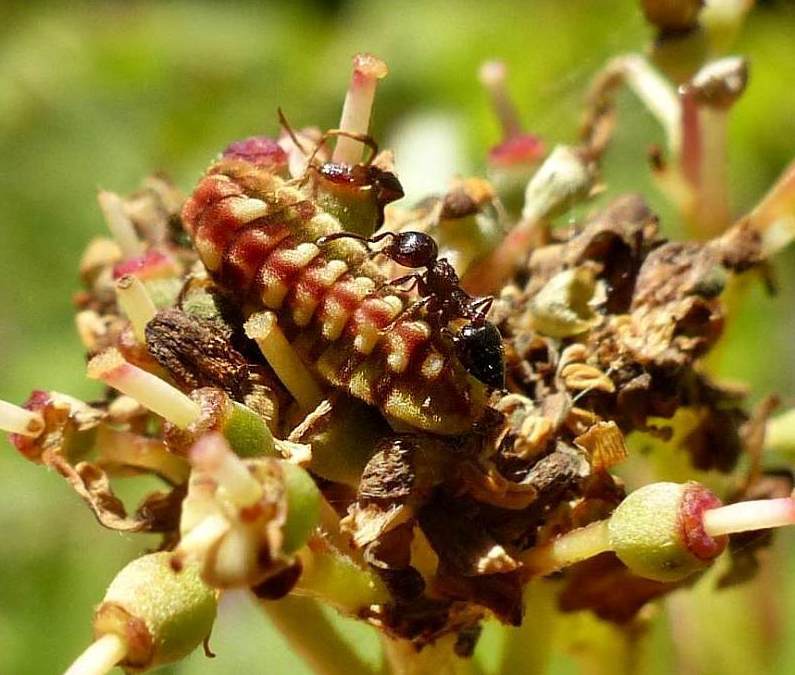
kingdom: Animalia
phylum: Arthropoda
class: Insecta
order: Lepidoptera
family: Lycaenidae
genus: Celastrina
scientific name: Celastrina lucia
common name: Lucia azure
